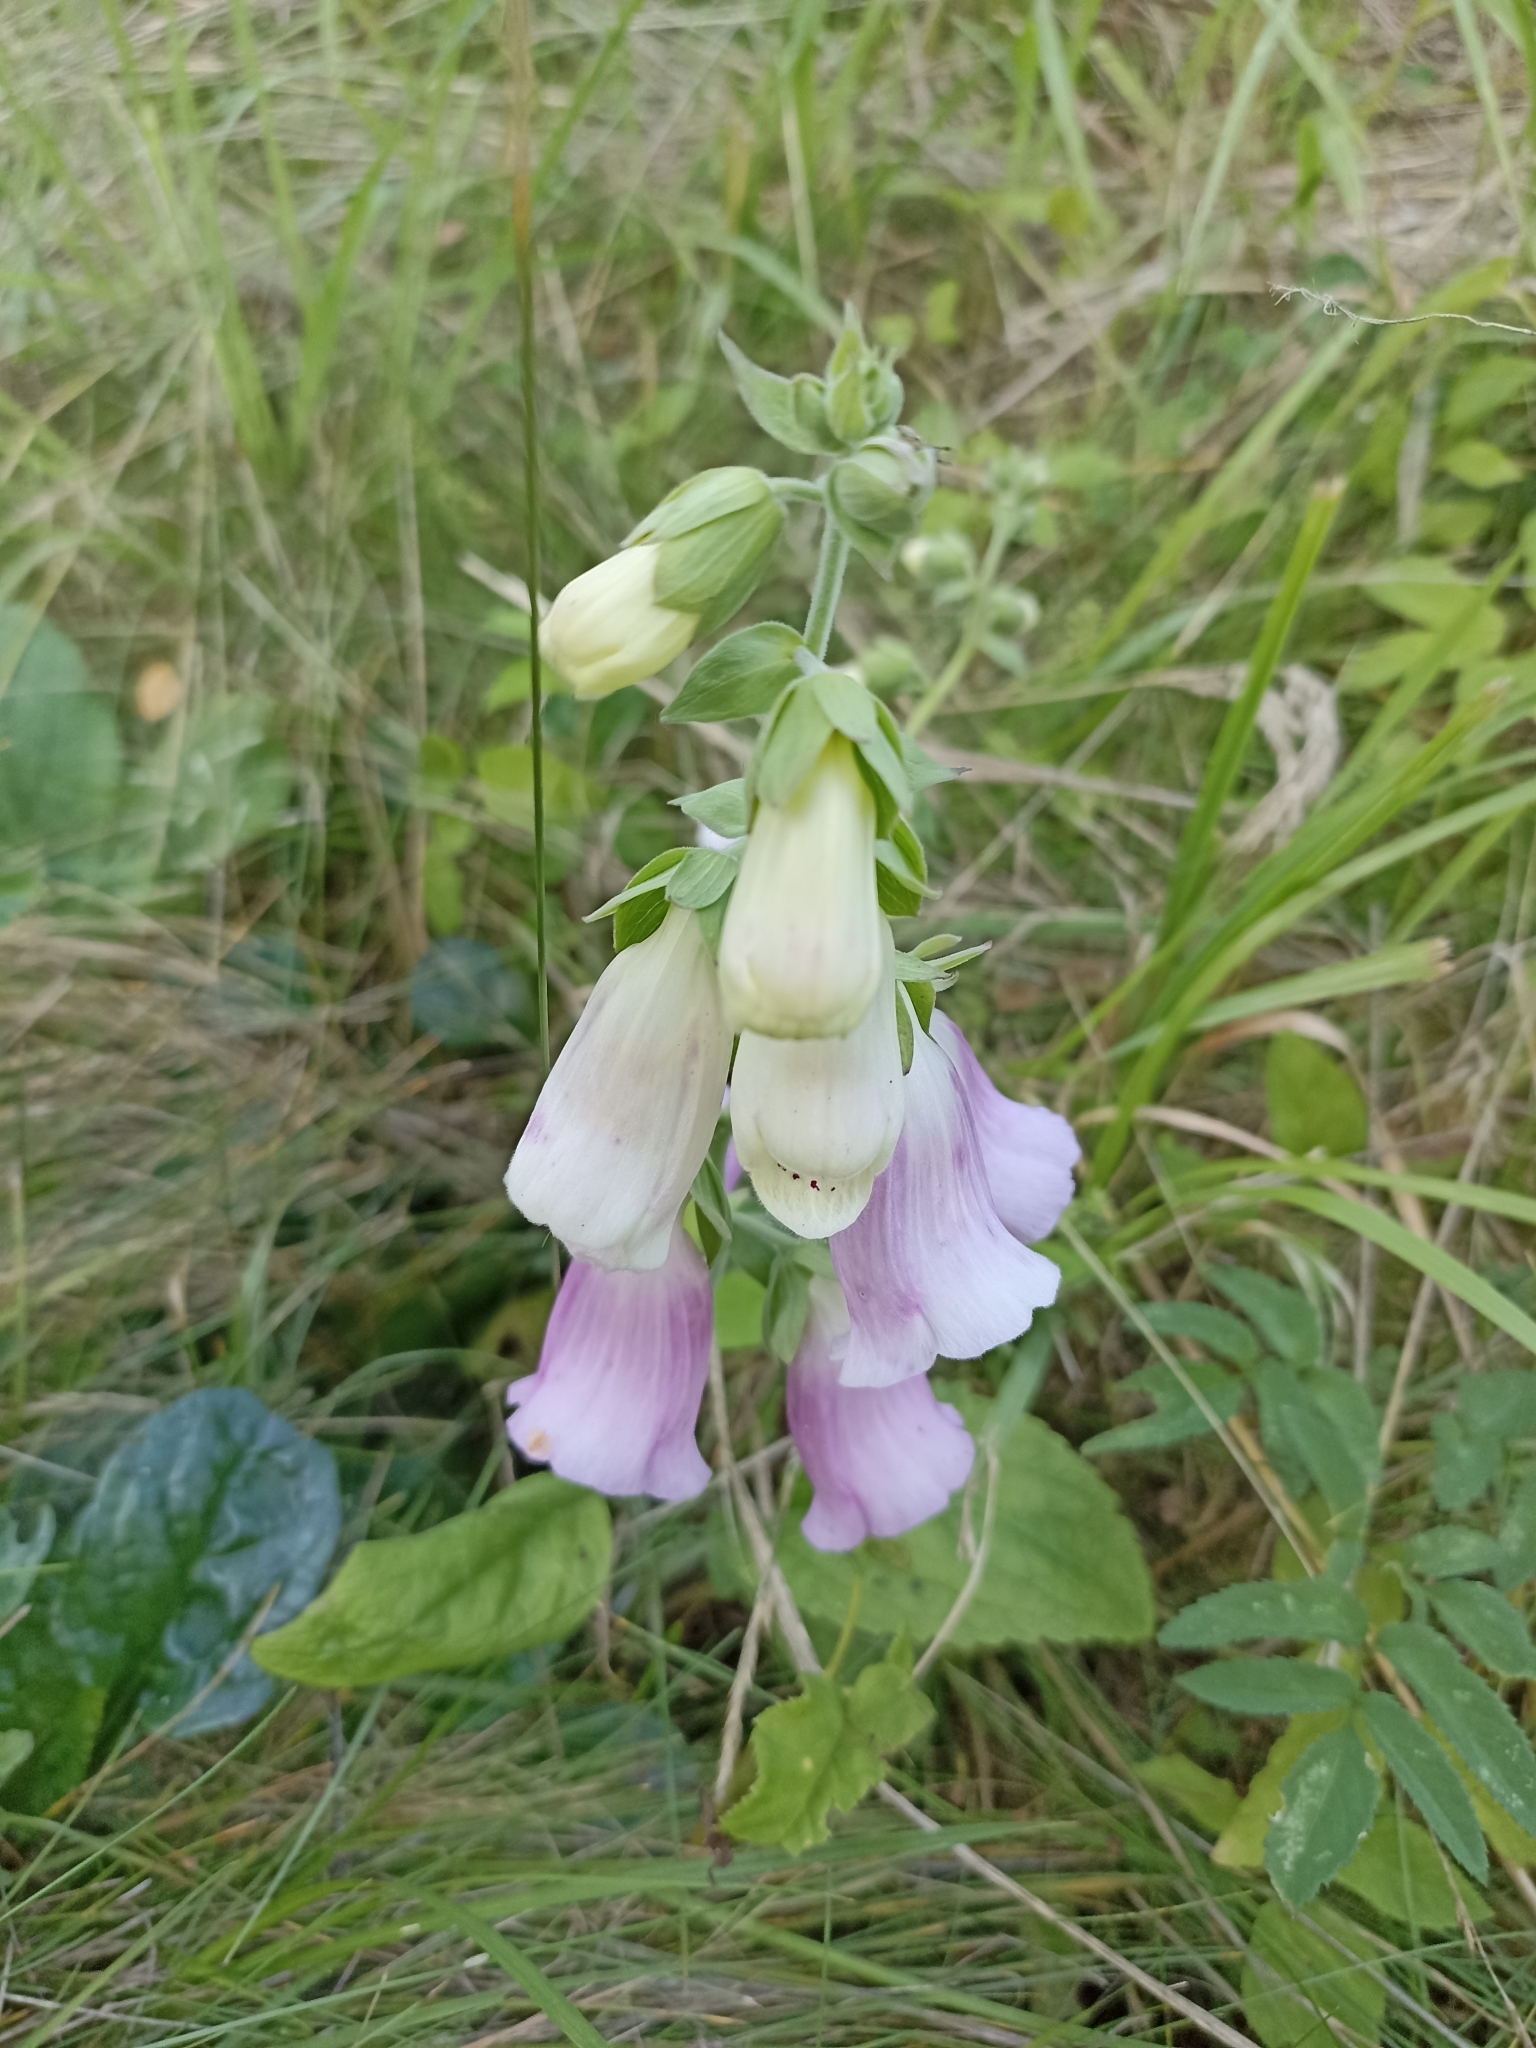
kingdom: Plantae
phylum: Tracheophyta
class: Magnoliopsida
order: Lamiales
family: Plantaginaceae
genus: Digitalis
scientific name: Digitalis purpurea
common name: Foxglove
